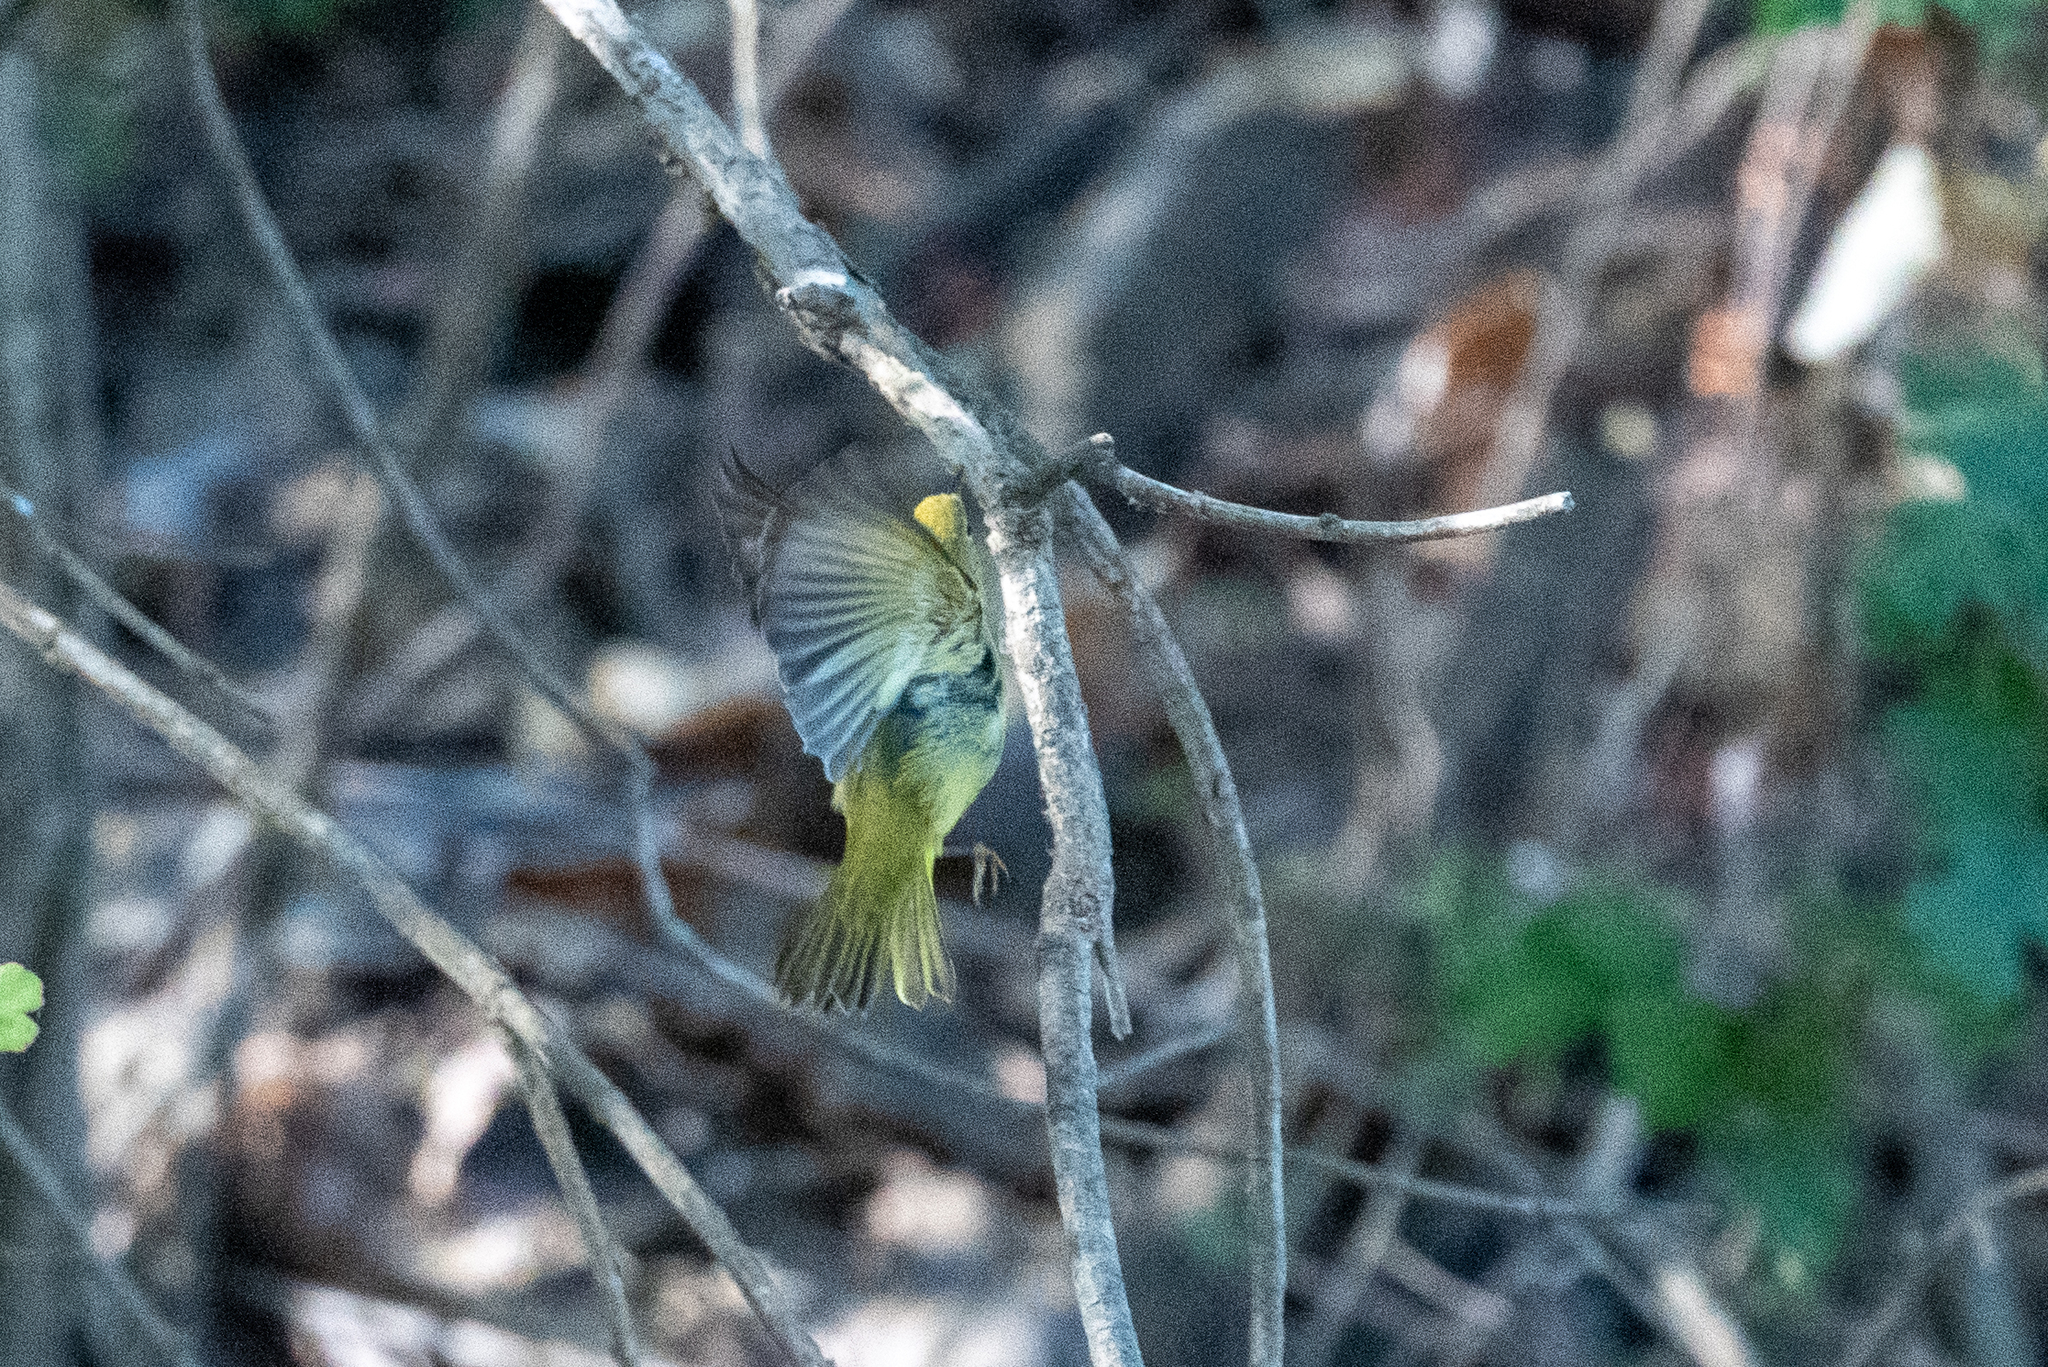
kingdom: Animalia
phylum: Chordata
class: Aves
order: Passeriformes
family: Parulidae
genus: Setophaga
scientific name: Setophaga petechia
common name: Yellow warbler
